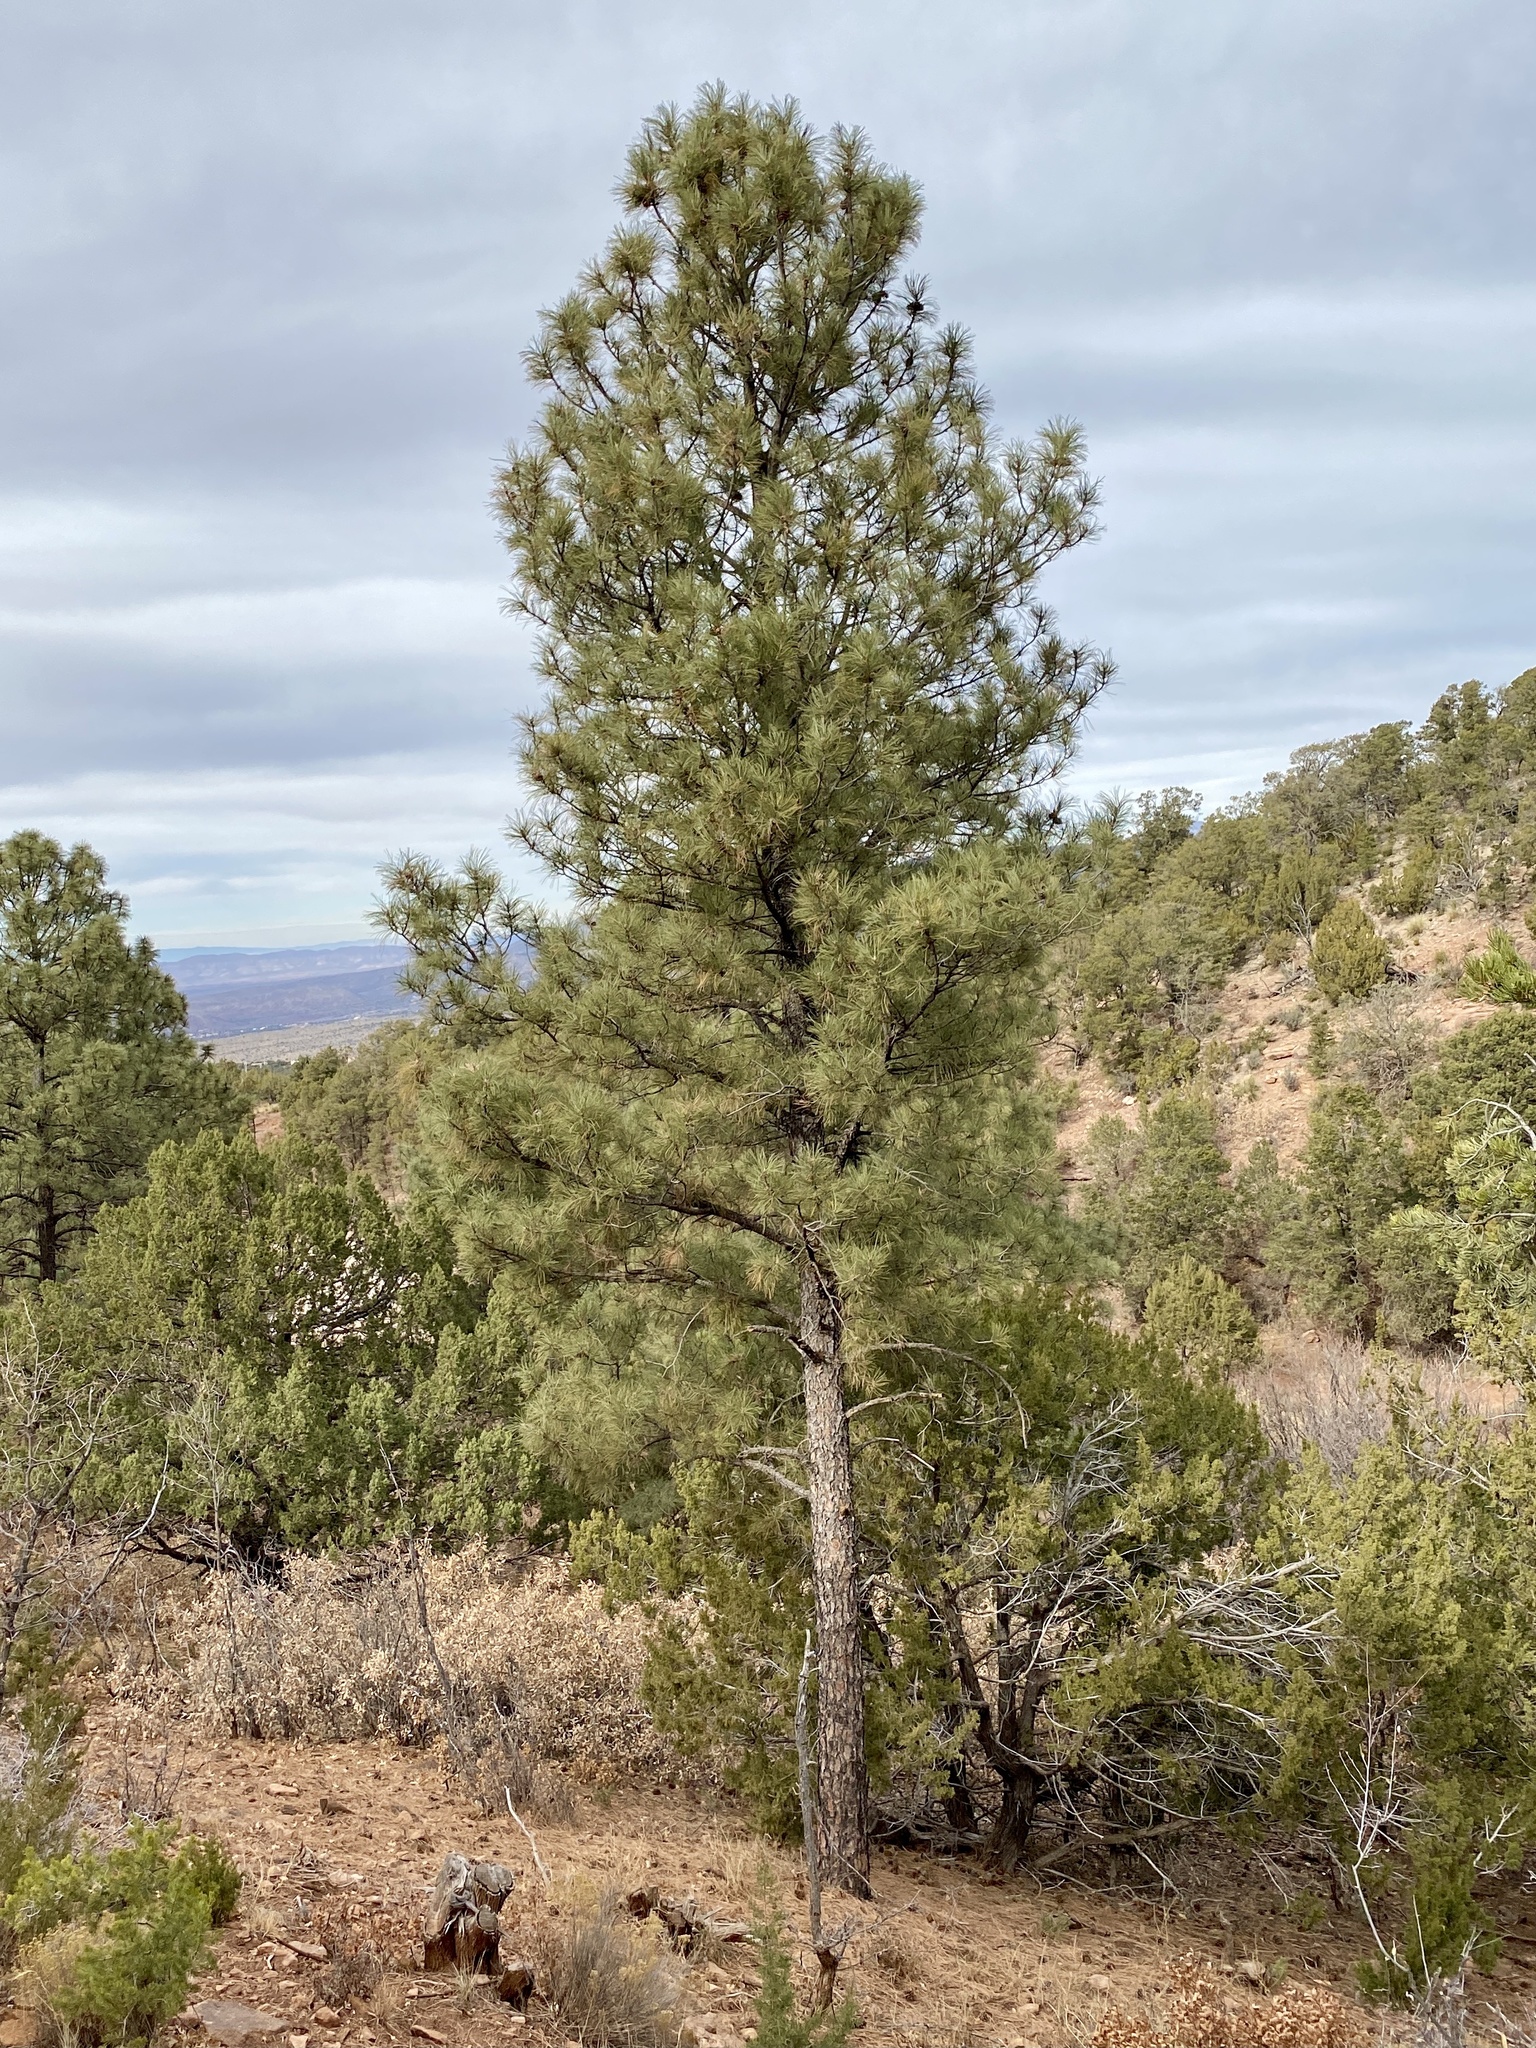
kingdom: Plantae
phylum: Tracheophyta
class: Pinopsida
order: Pinales
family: Pinaceae
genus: Pinus
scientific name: Pinus ponderosa
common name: Western yellow-pine
